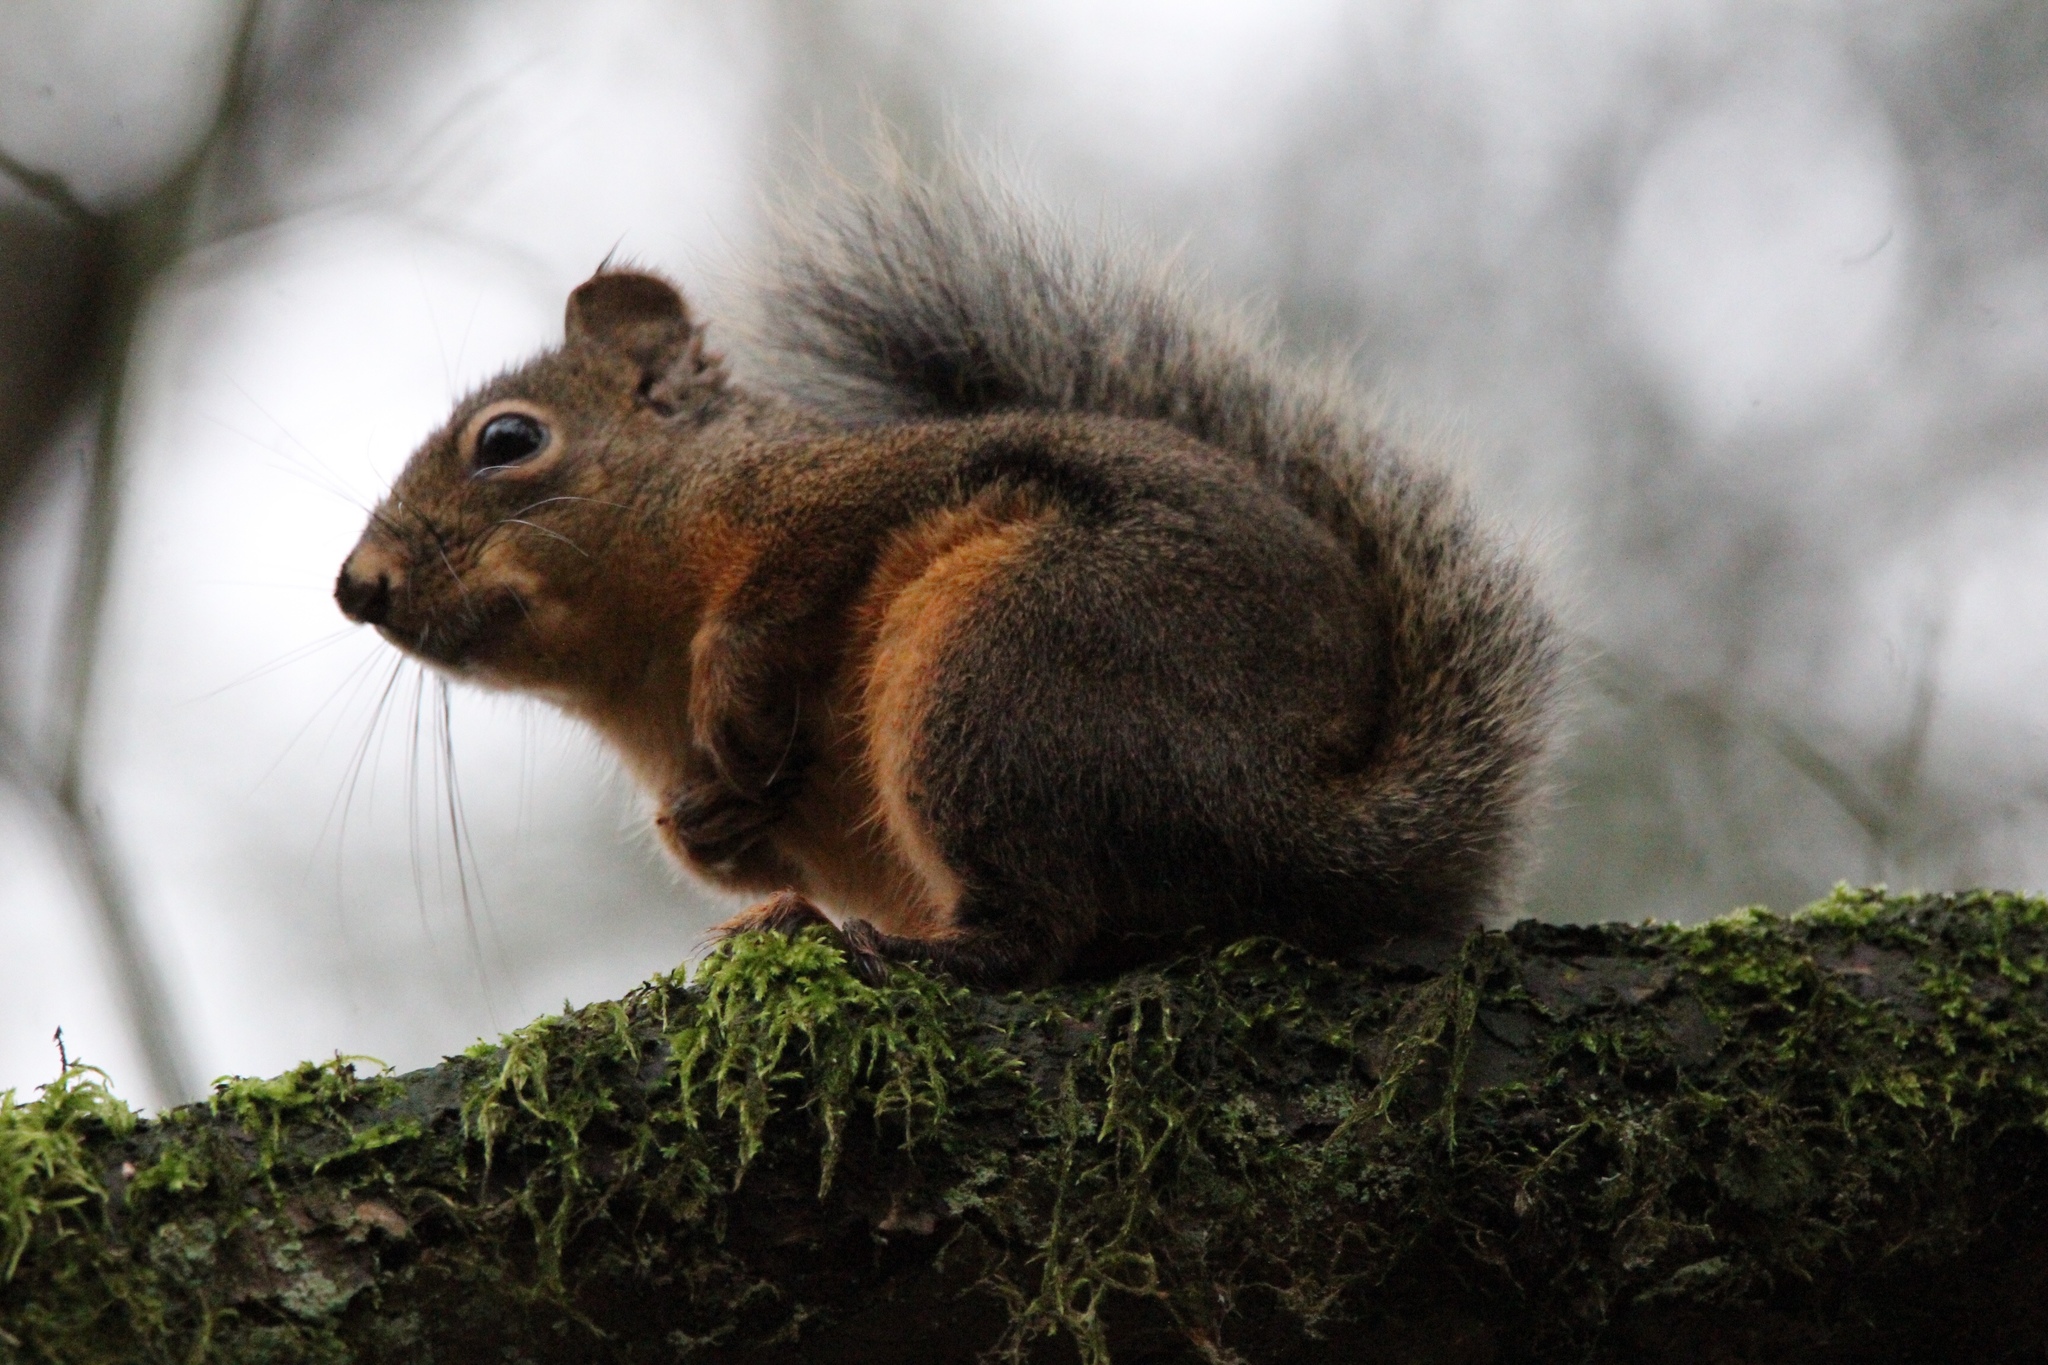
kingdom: Animalia
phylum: Chordata
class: Mammalia
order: Rodentia
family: Sciuridae
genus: Tamiasciurus
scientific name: Tamiasciurus douglasii
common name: Douglas's squirrel
